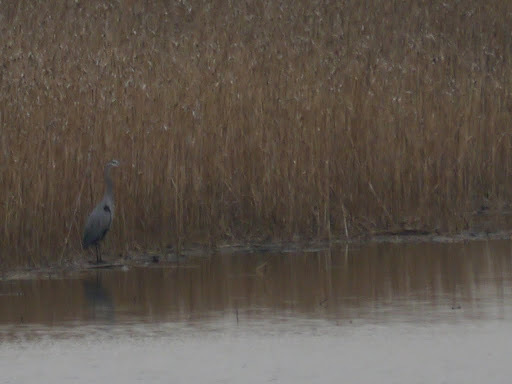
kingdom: Animalia
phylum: Chordata
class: Aves
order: Pelecaniformes
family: Ardeidae
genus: Ardea
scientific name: Ardea herodias
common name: Great blue heron
